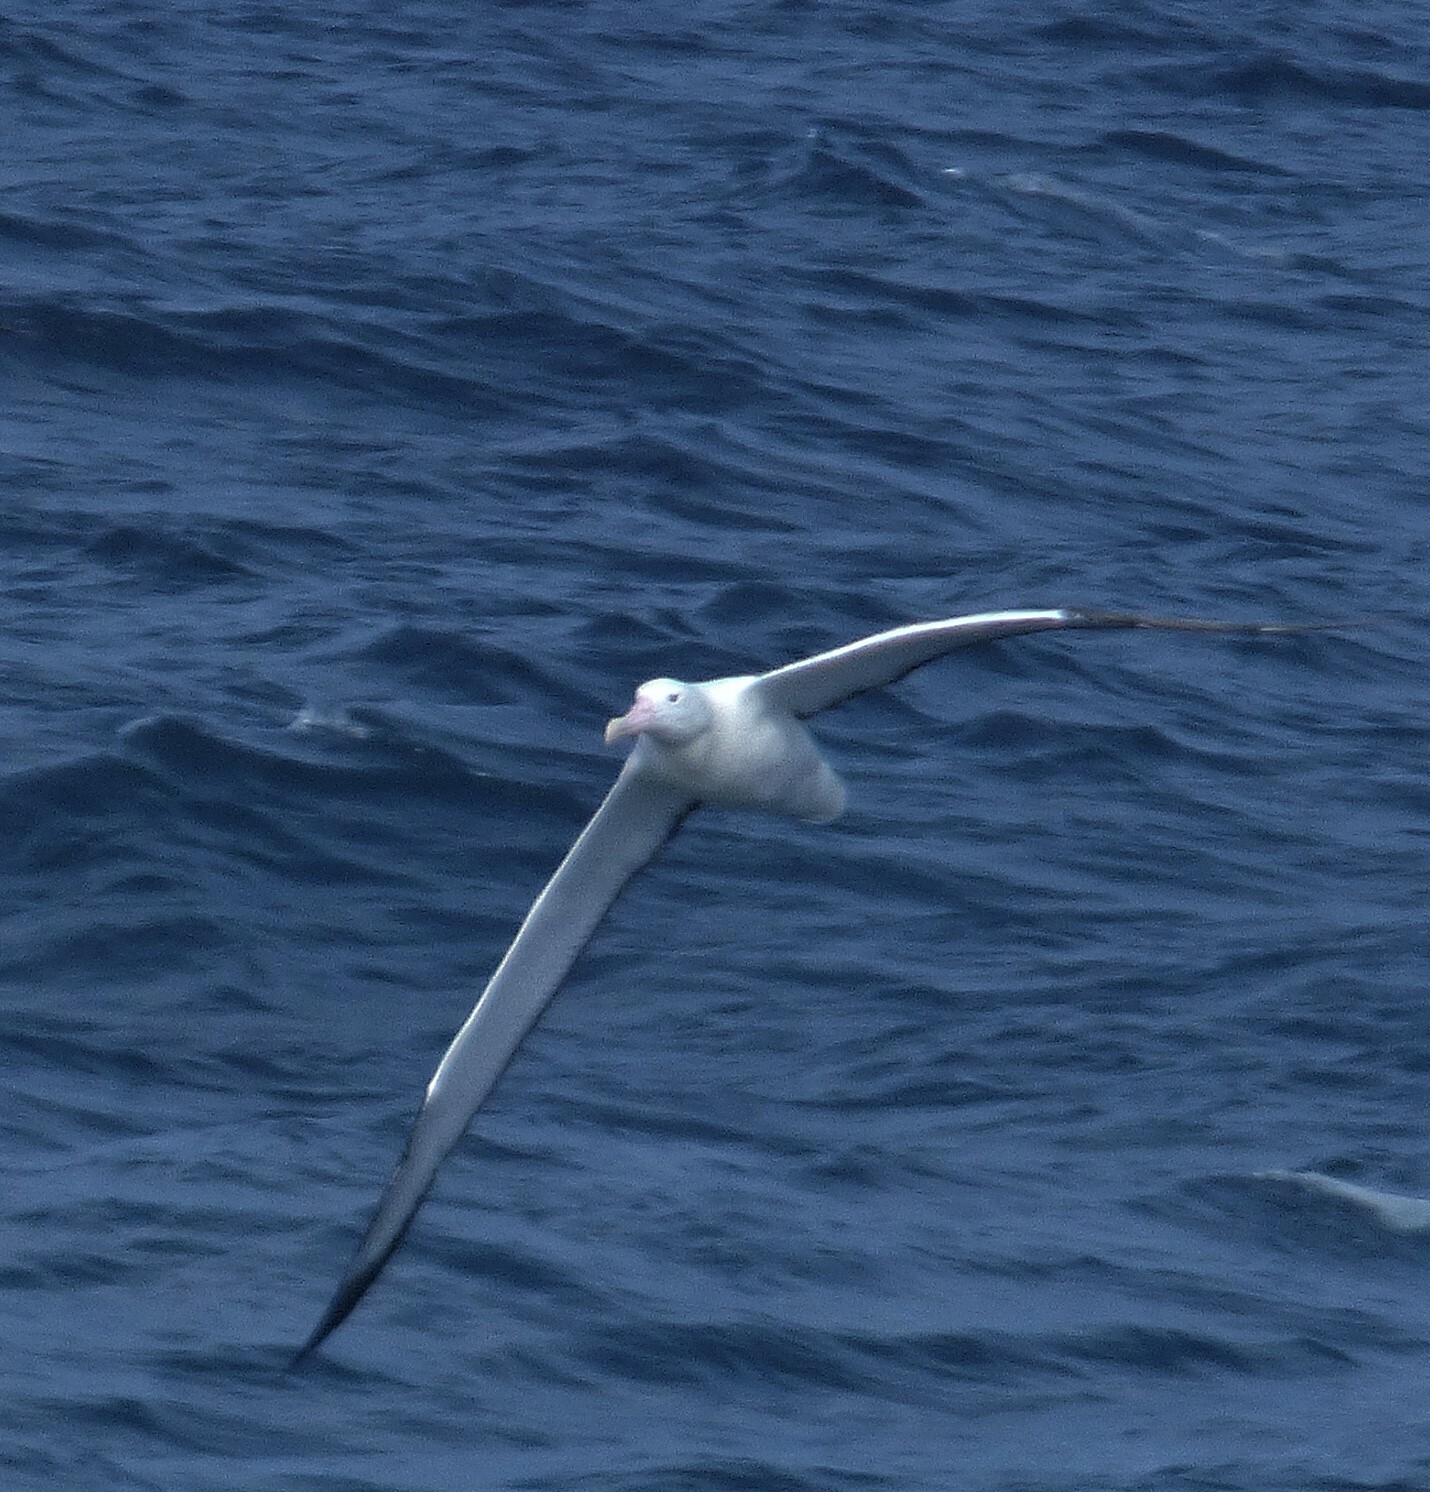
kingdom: Animalia
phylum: Chordata
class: Aves
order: Procellariiformes
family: Diomedeidae
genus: Diomedea
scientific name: Diomedea epomophora
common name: Southern royal albatross
